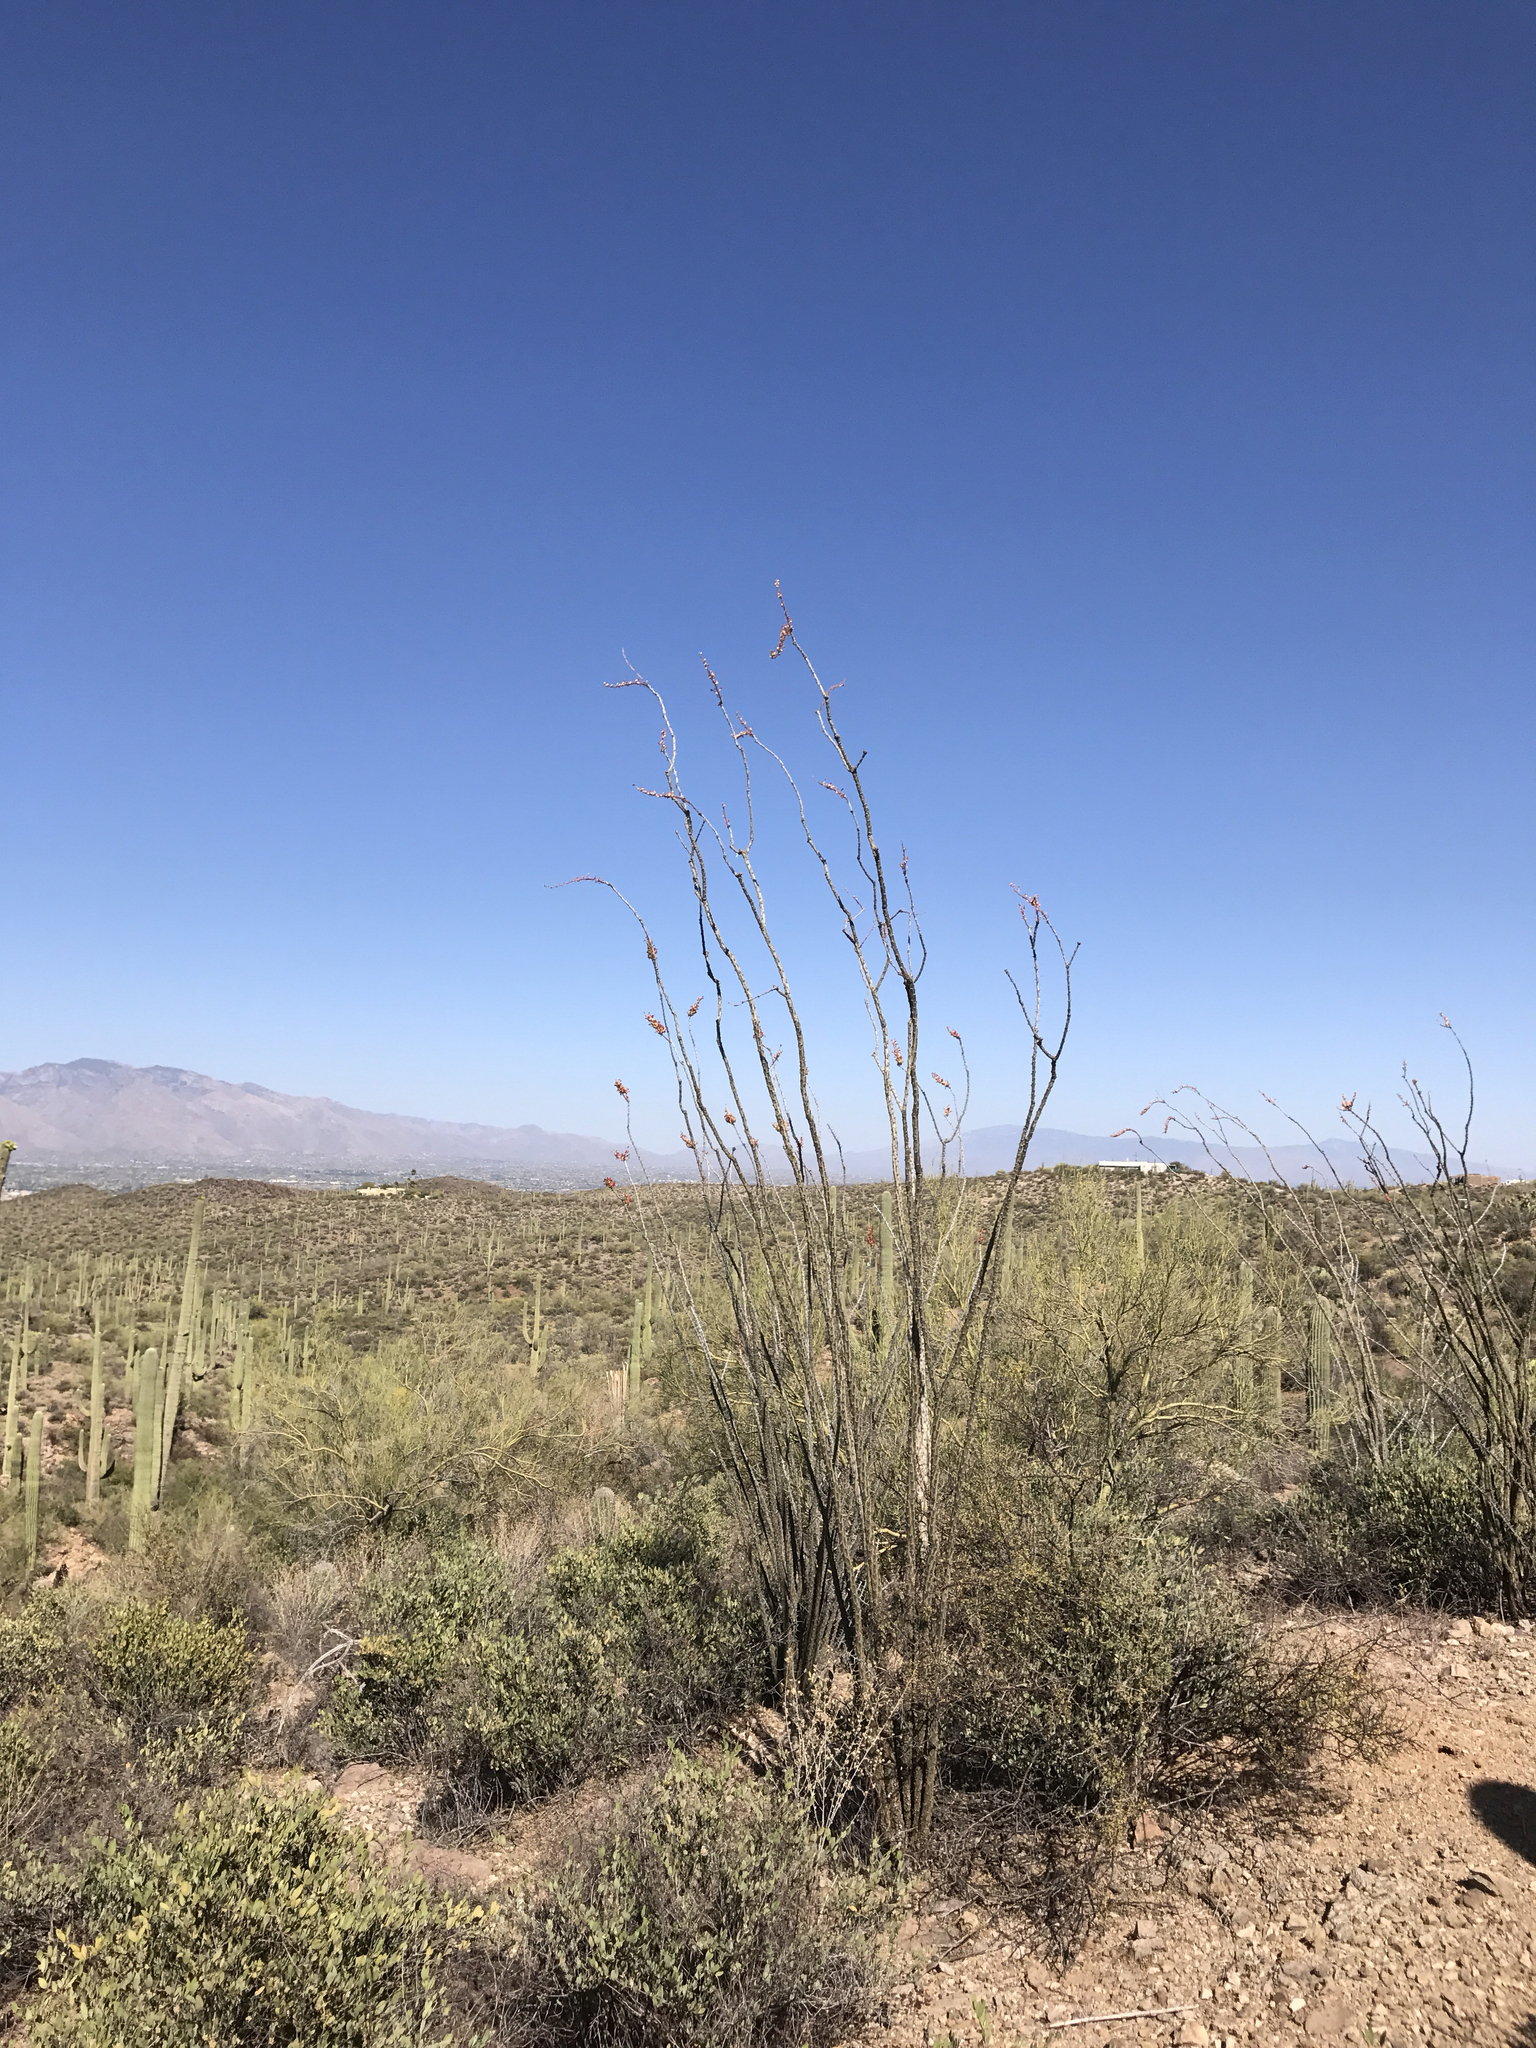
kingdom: Plantae
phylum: Tracheophyta
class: Magnoliopsida
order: Ericales
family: Fouquieriaceae
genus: Fouquieria
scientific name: Fouquieria splendens
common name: Vine-cactus
